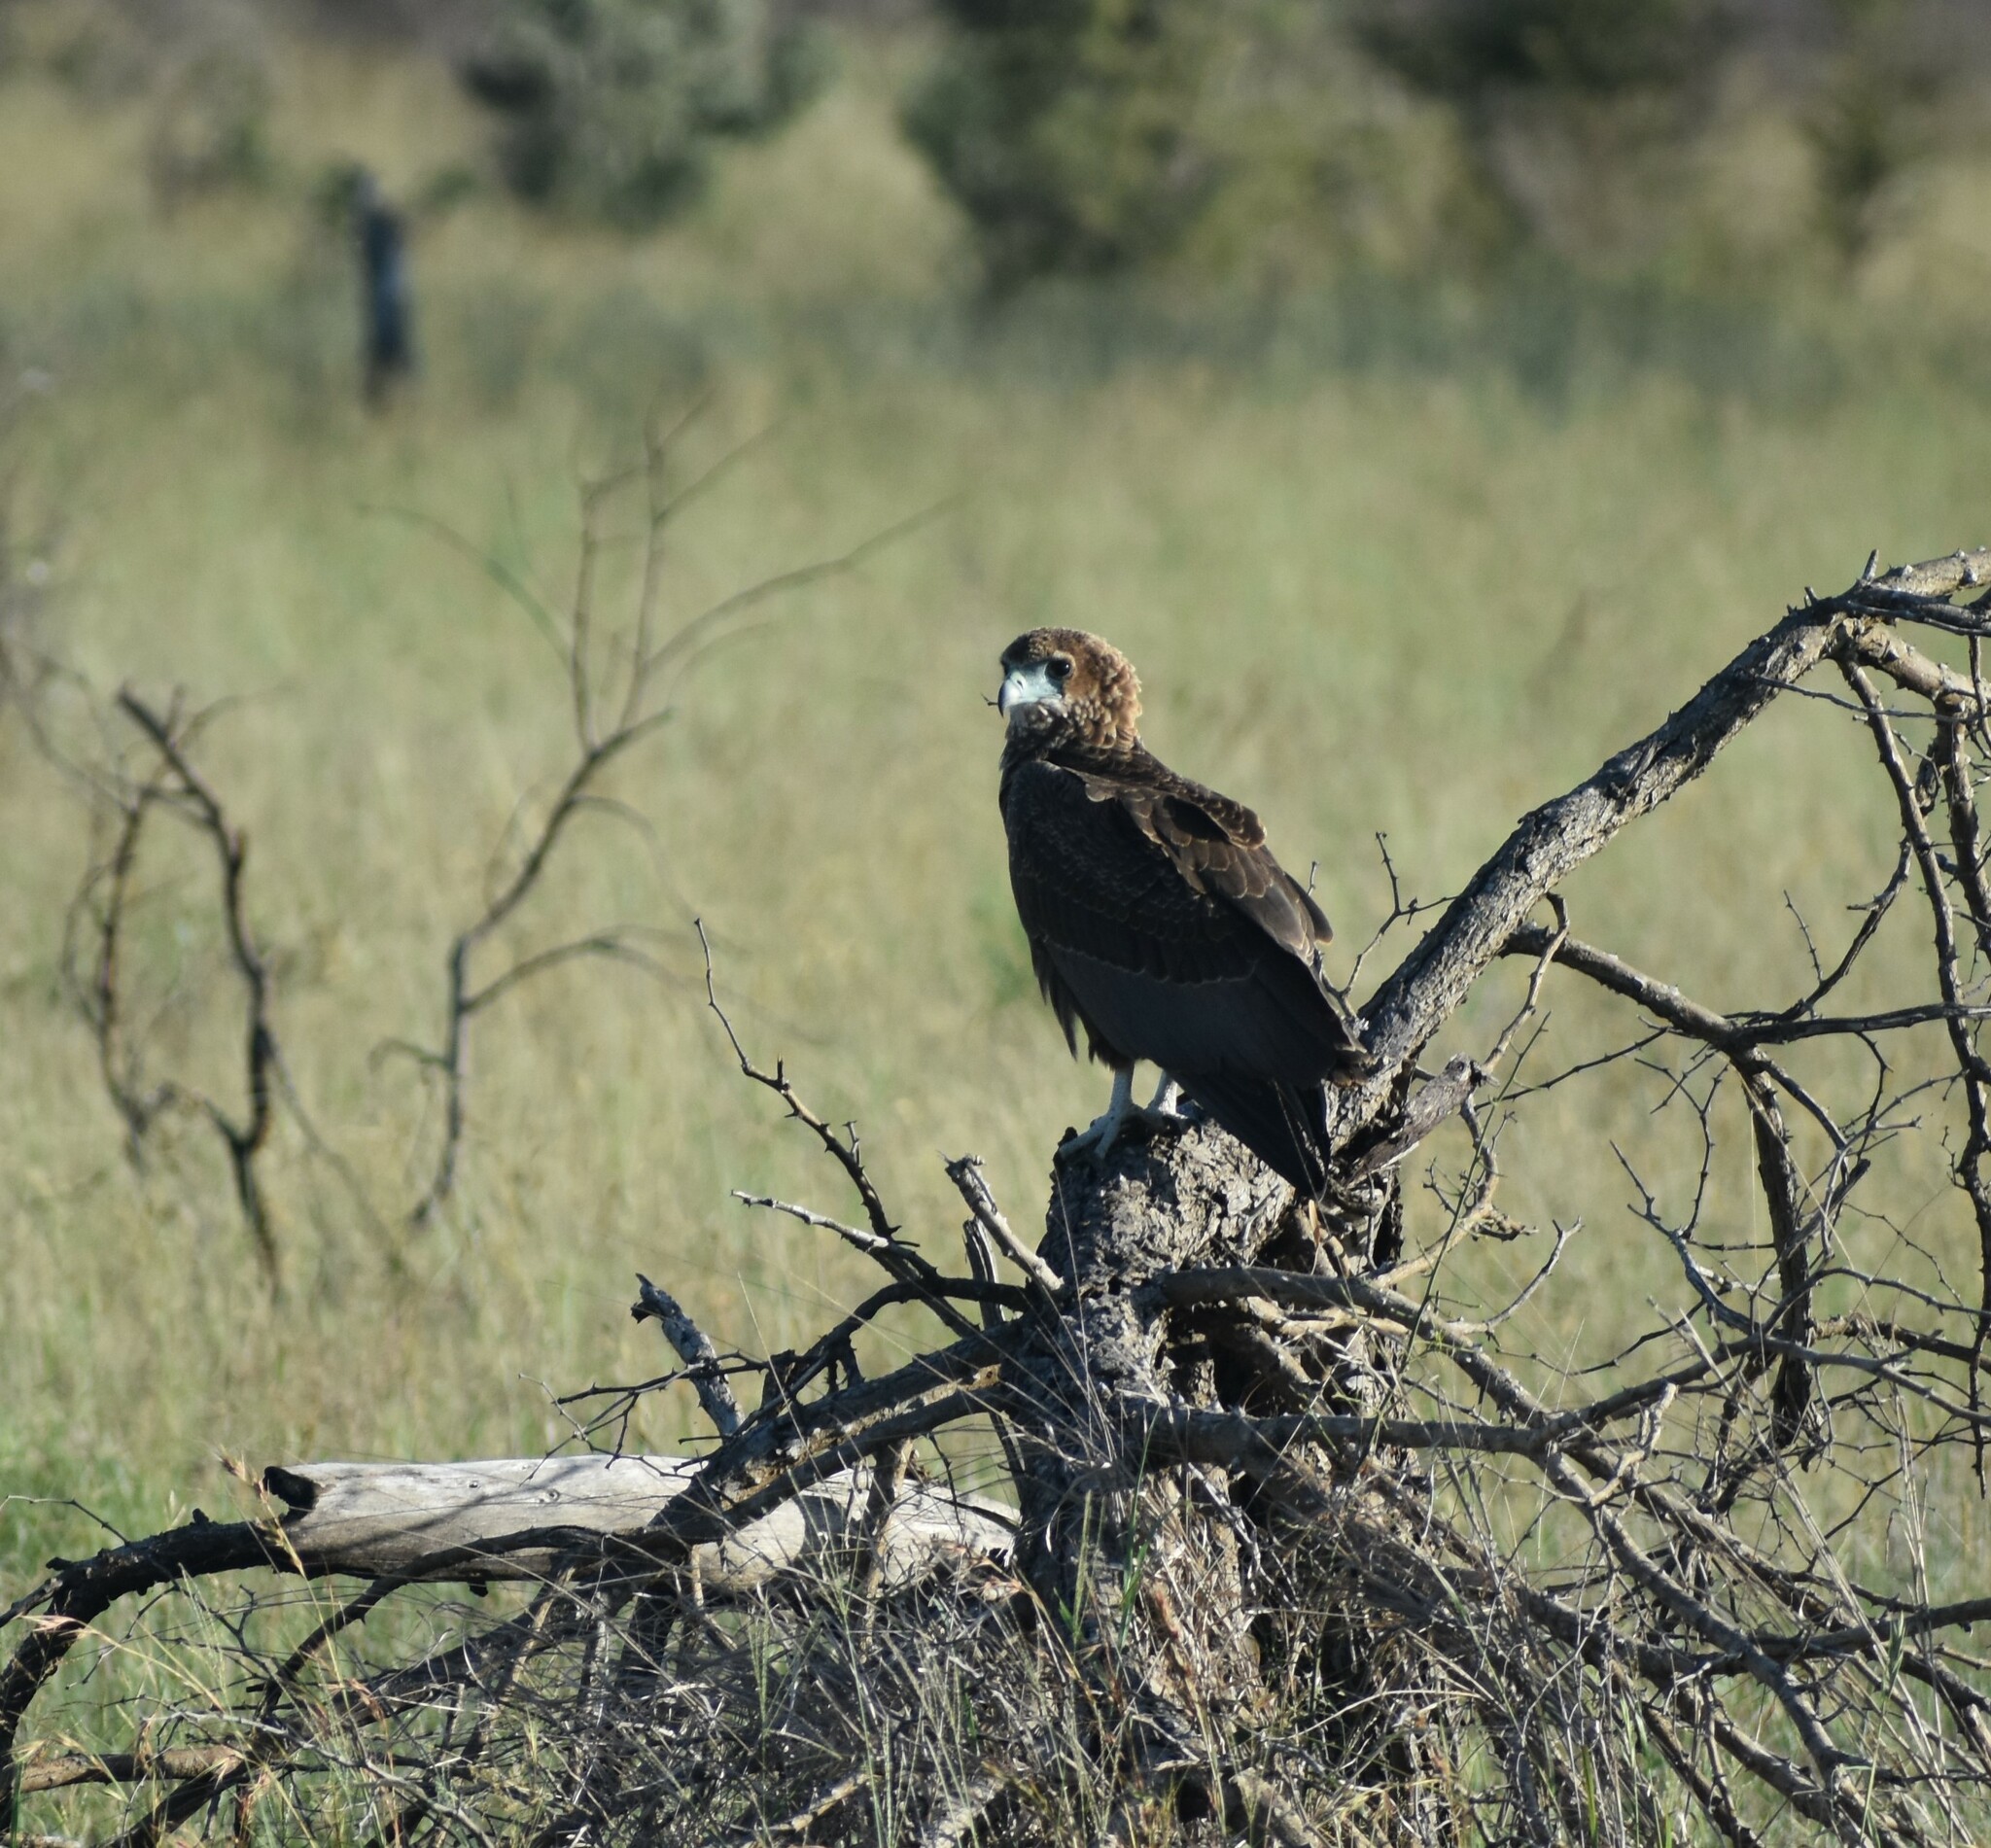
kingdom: Animalia
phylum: Chordata
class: Aves
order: Accipitriformes
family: Accipitridae
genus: Terathopius
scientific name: Terathopius ecaudatus
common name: Bateleur
